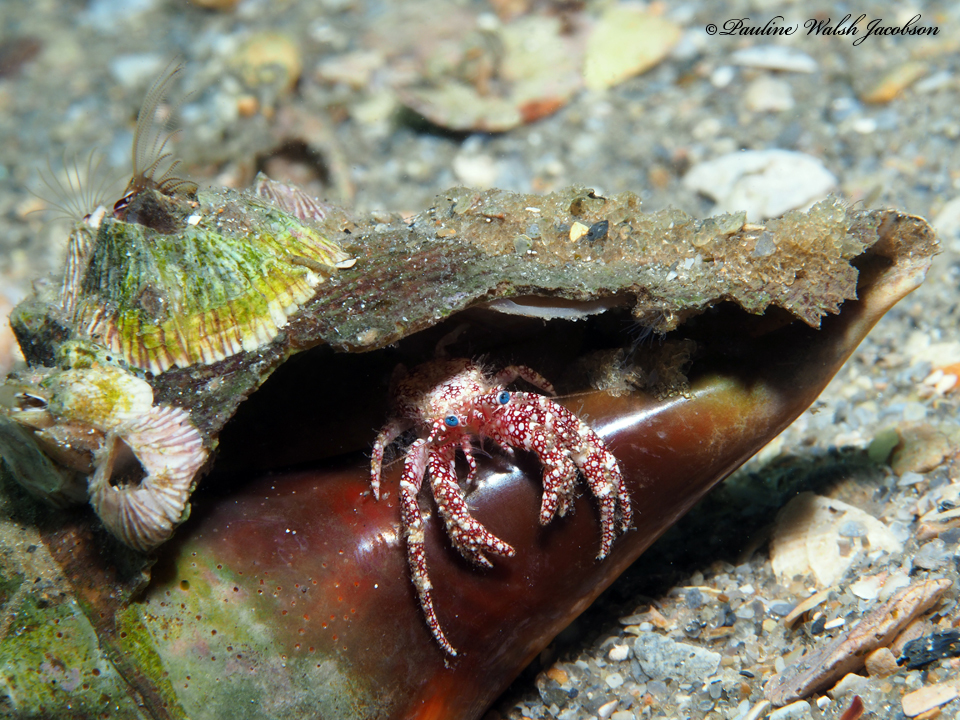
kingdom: Animalia
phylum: Arthropoda
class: Malacostraca
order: Decapoda
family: Diogenidae
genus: Paguristes
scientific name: Paguristes puncticeps
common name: White speckled hermit
